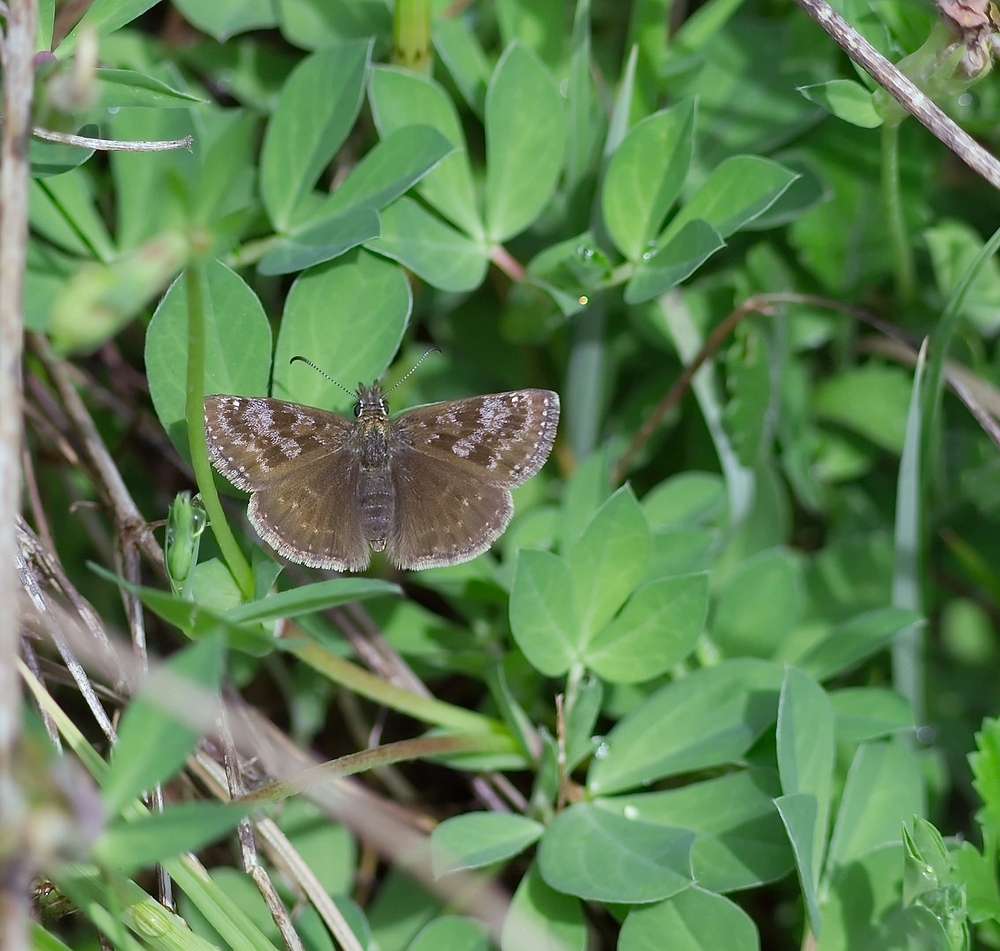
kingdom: Animalia
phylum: Arthropoda
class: Insecta
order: Lepidoptera
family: Hesperiidae
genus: Erynnis
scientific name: Erynnis tages
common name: Dingy skipper
